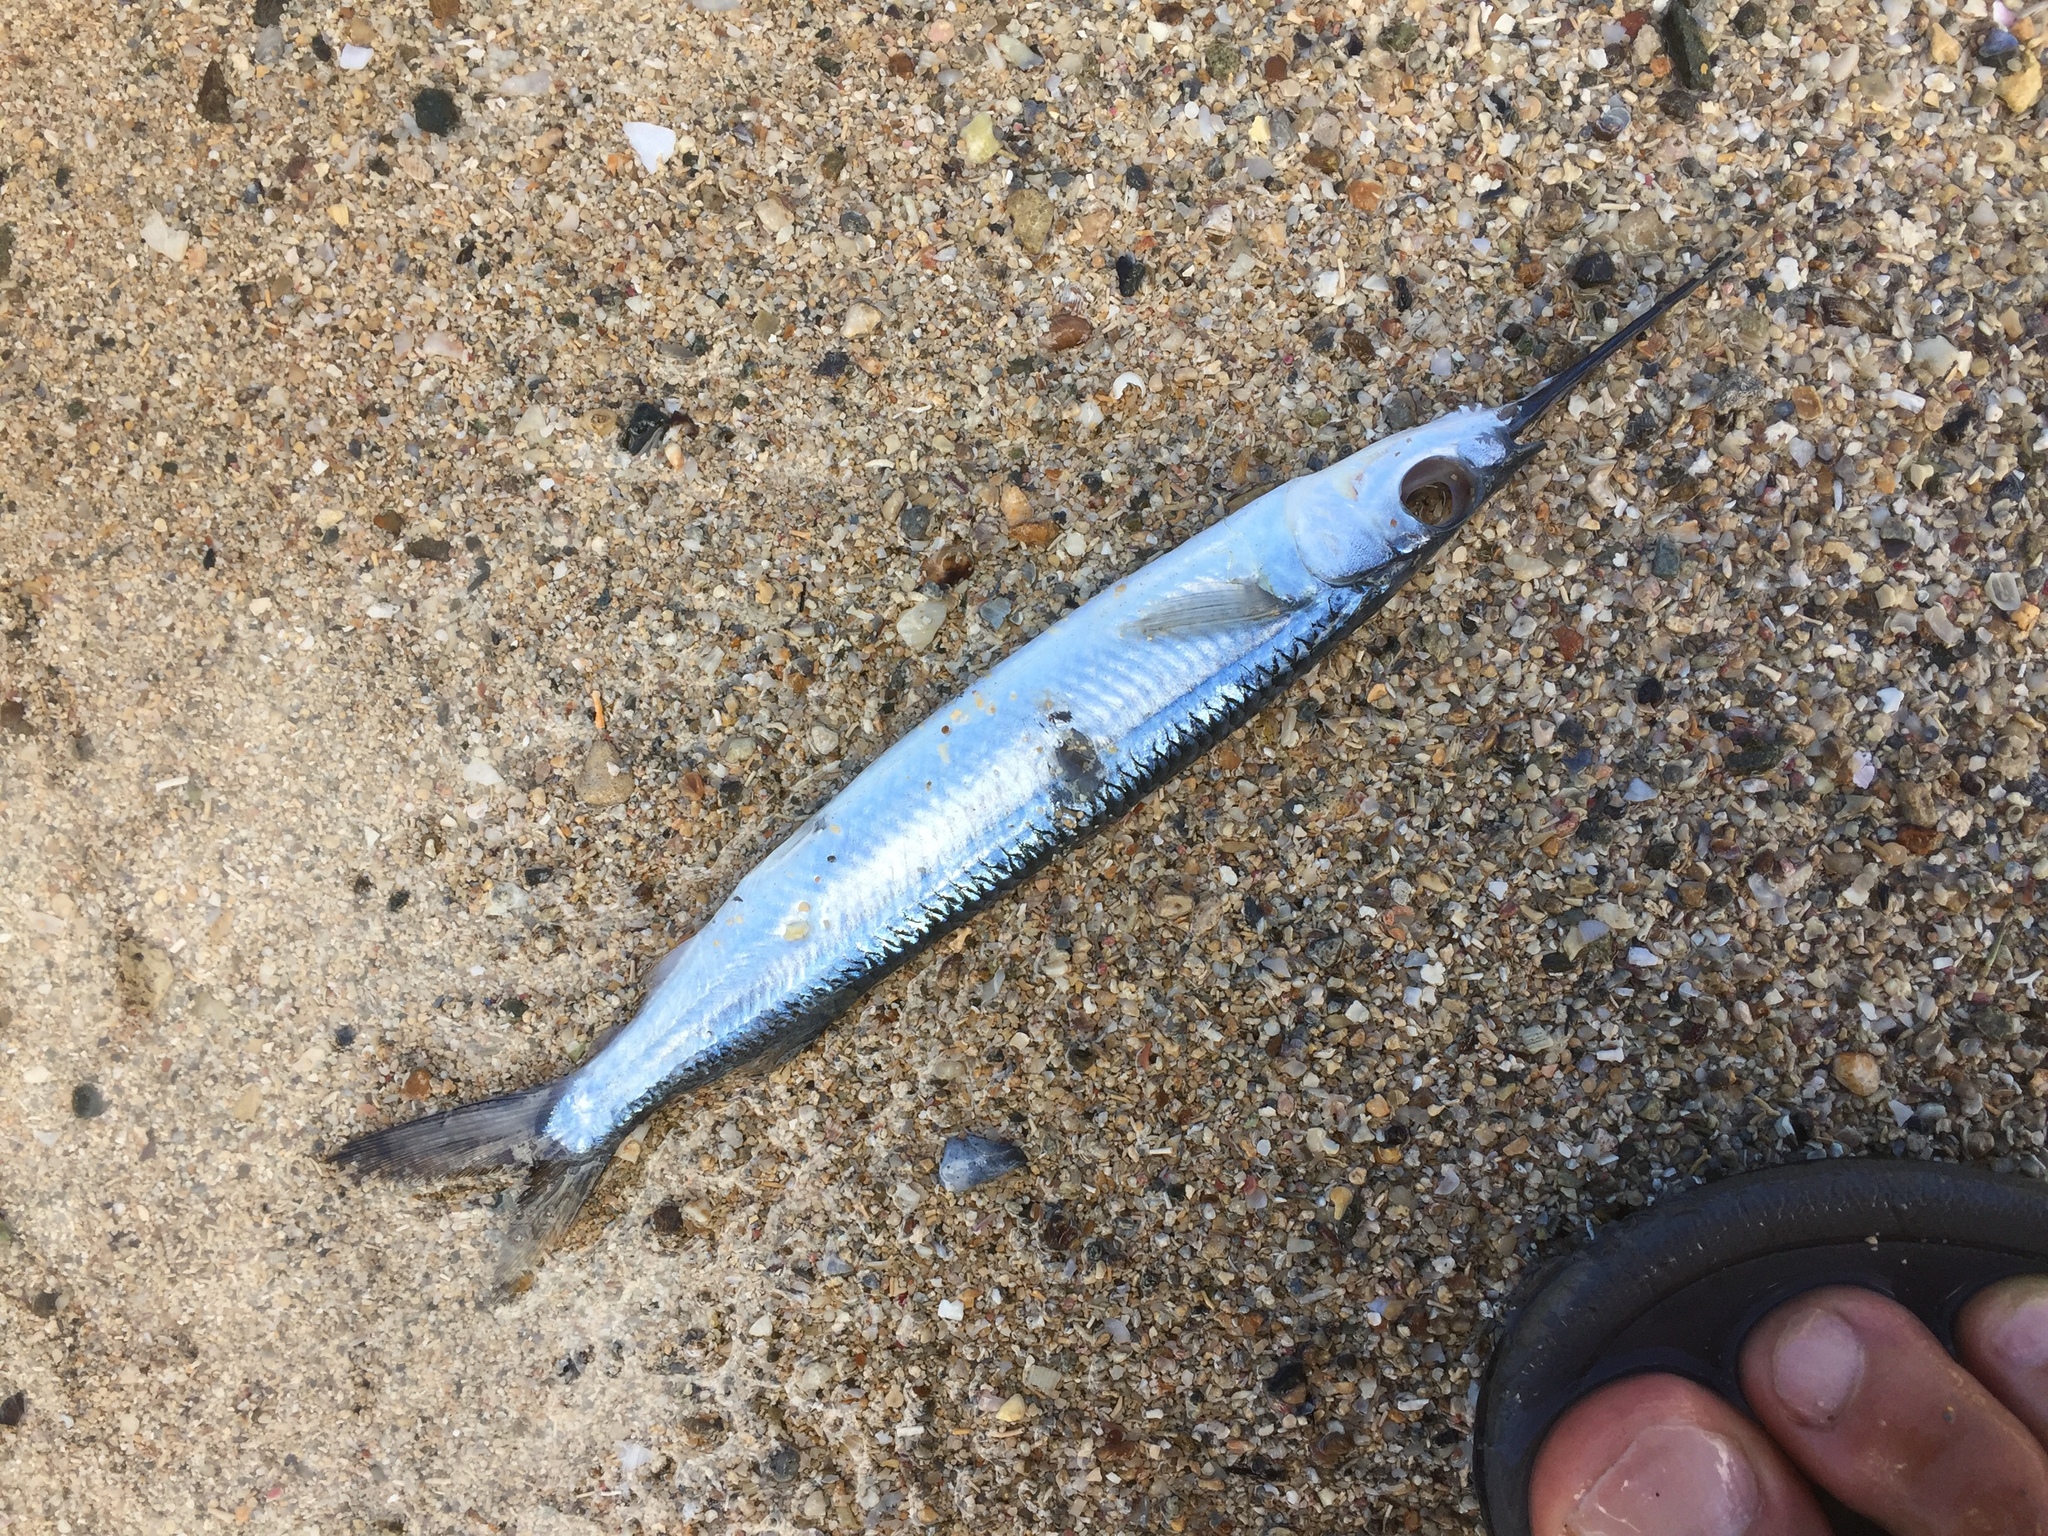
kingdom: Animalia
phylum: Chordata
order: Beloniformes
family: Hemiramphidae
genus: Hemiramphus
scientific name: Hemiramphus brasiliensis
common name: Ballyhoo
